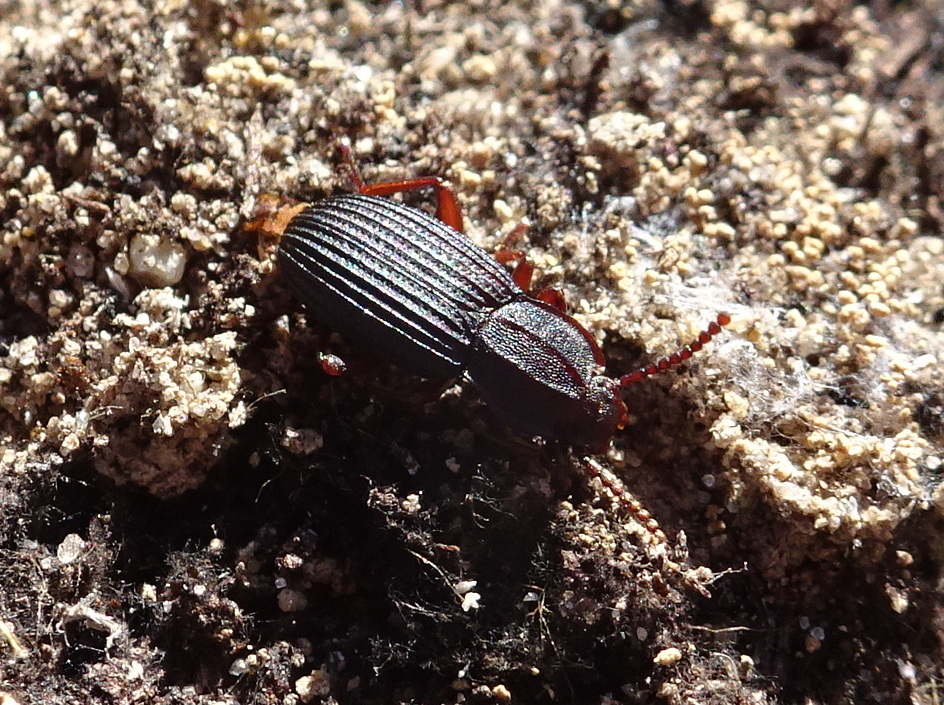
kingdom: Animalia
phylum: Arthropoda
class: Insecta
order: Coleoptera
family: Tenebrionidae
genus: Eulabis
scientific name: Eulabis bicarinata
